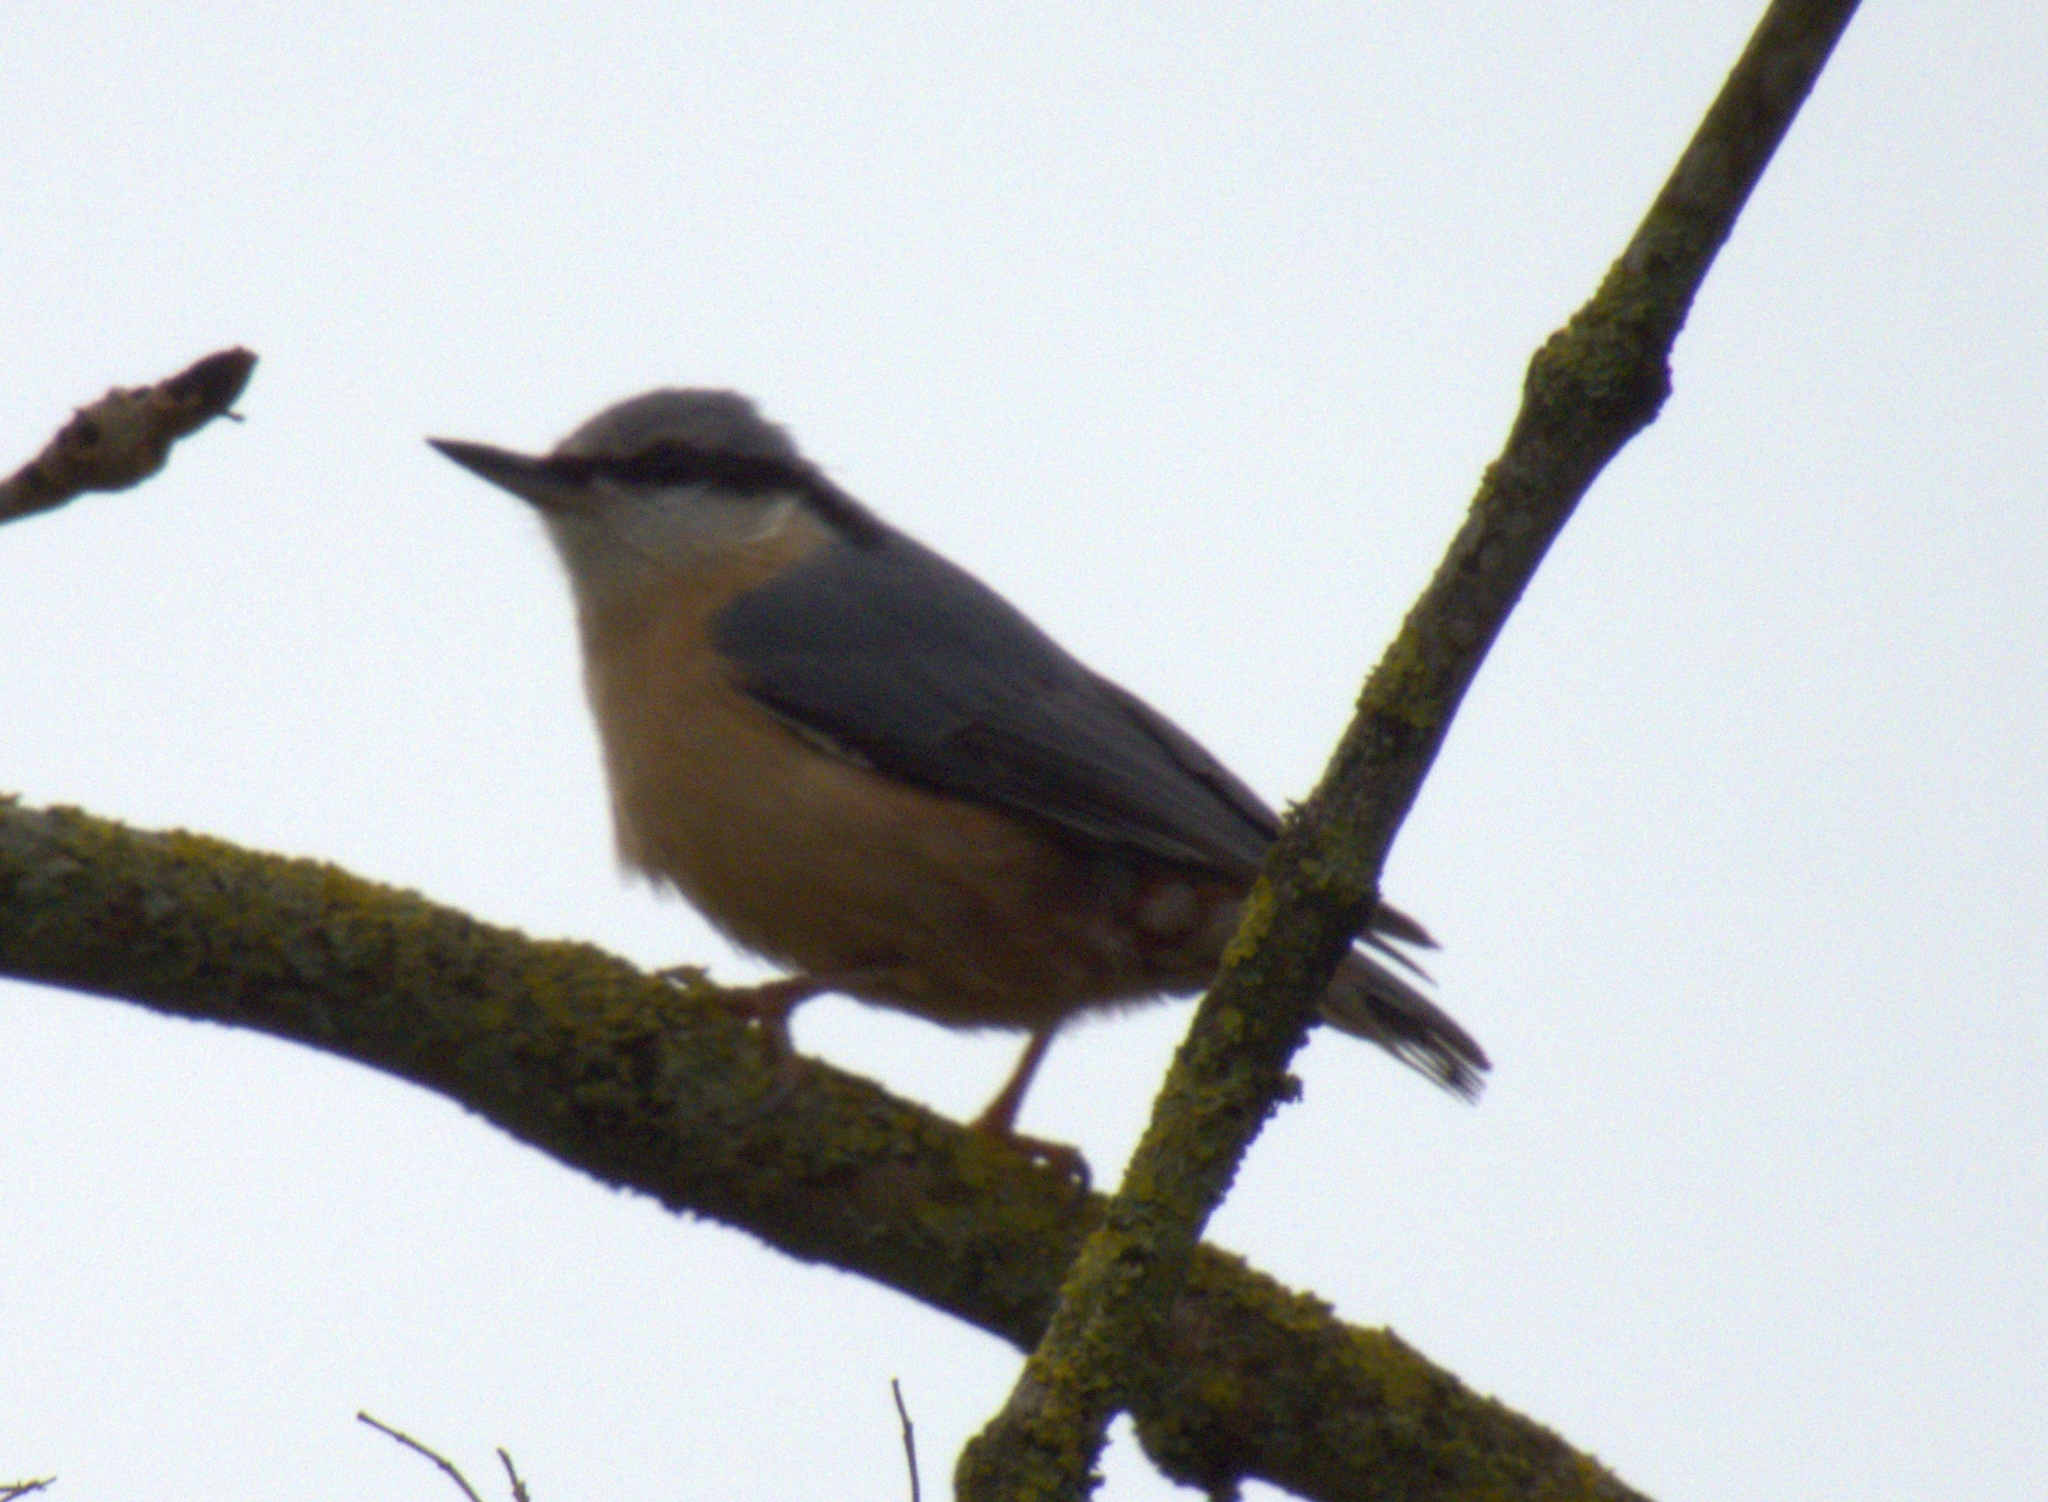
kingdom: Animalia
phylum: Chordata
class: Aves
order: Passeriformes
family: Sittidae
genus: Sitta
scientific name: Sitta europaea
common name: Eurasian nuthatch
